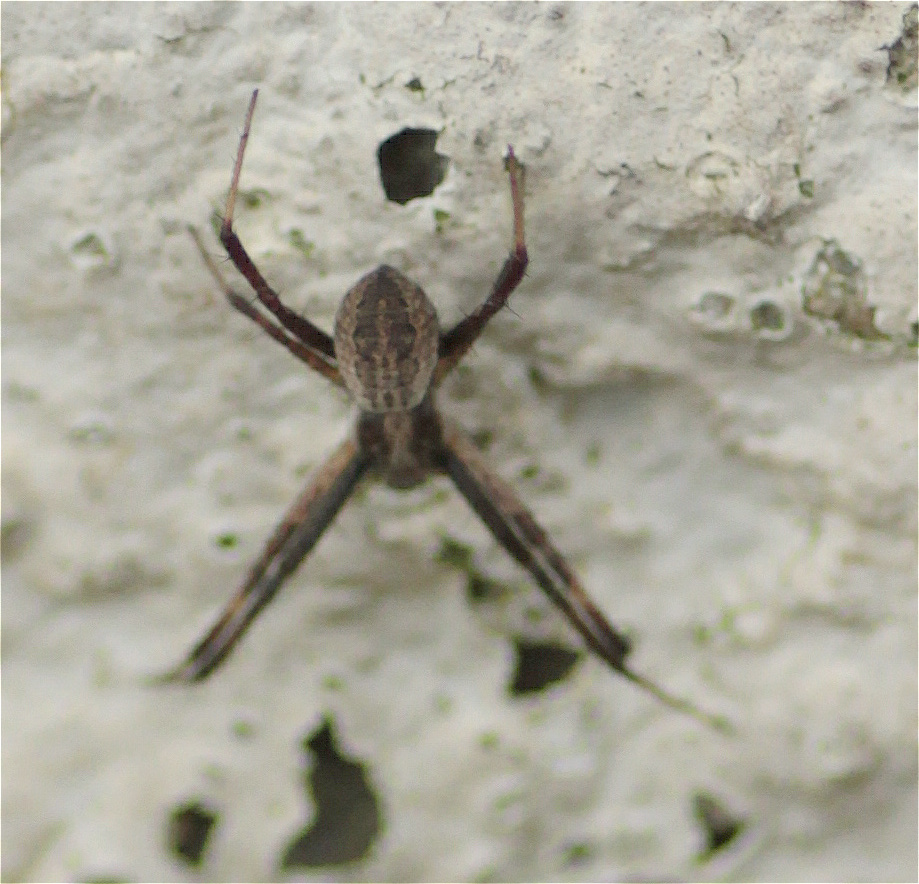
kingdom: Animalia
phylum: Arthropoda
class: Arachnida
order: Araneae
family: Araneidae
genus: Argiope
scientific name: Argiope argentata
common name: Orb weavers
